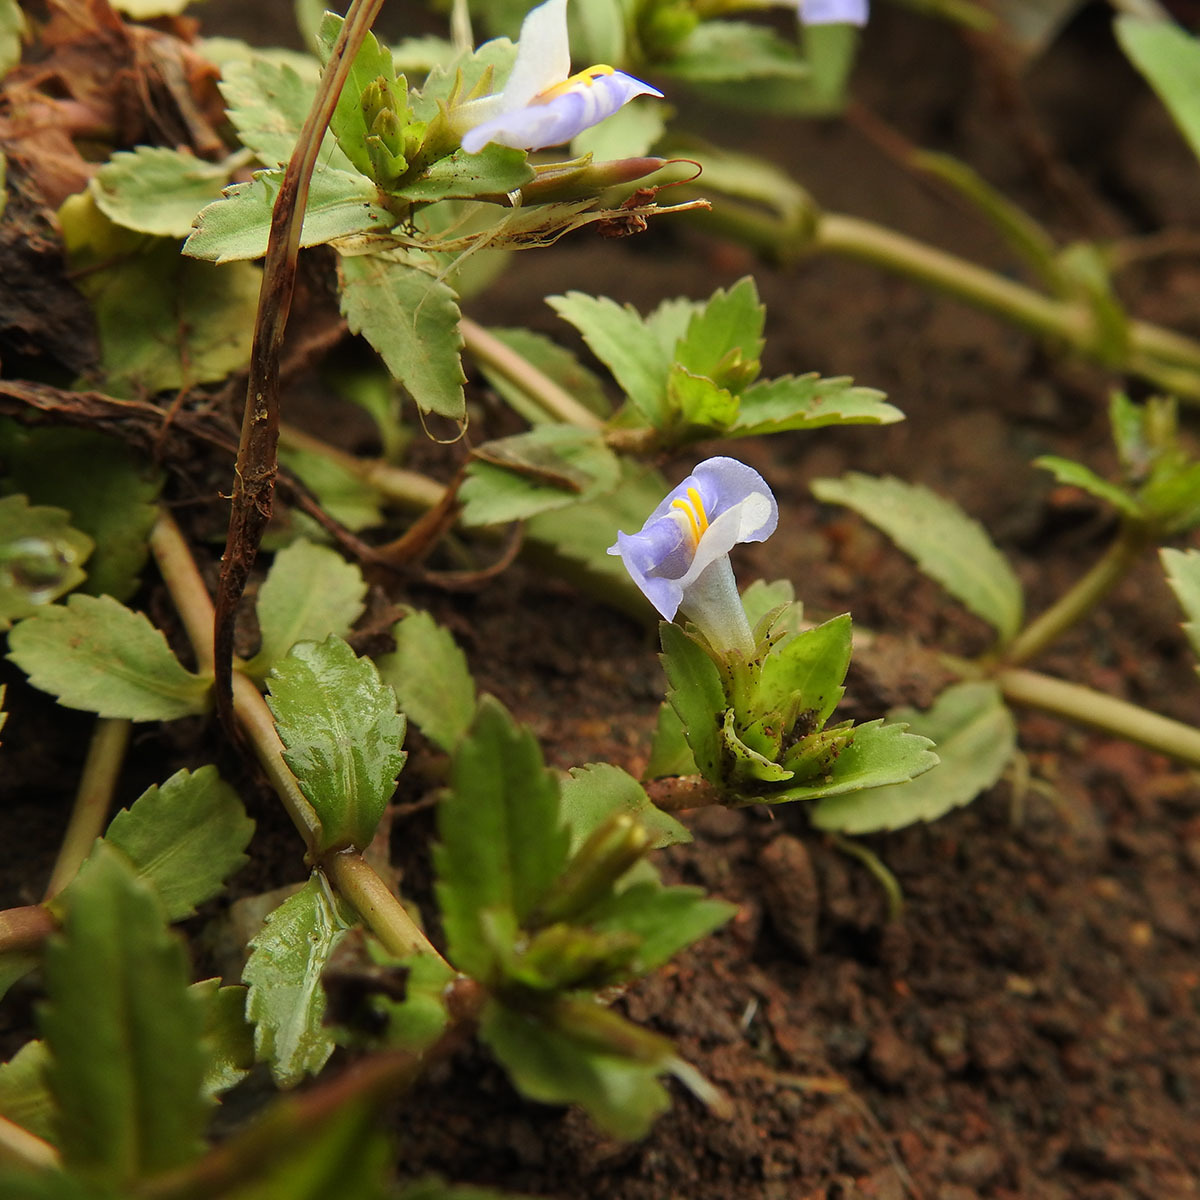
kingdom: Plantae
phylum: Tracheophyta
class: Magnoliopsida
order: Lamiales
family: Linderniaceae
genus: Bonnaya
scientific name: Bonnaya antipoda
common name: Sparrow false pimpernel
